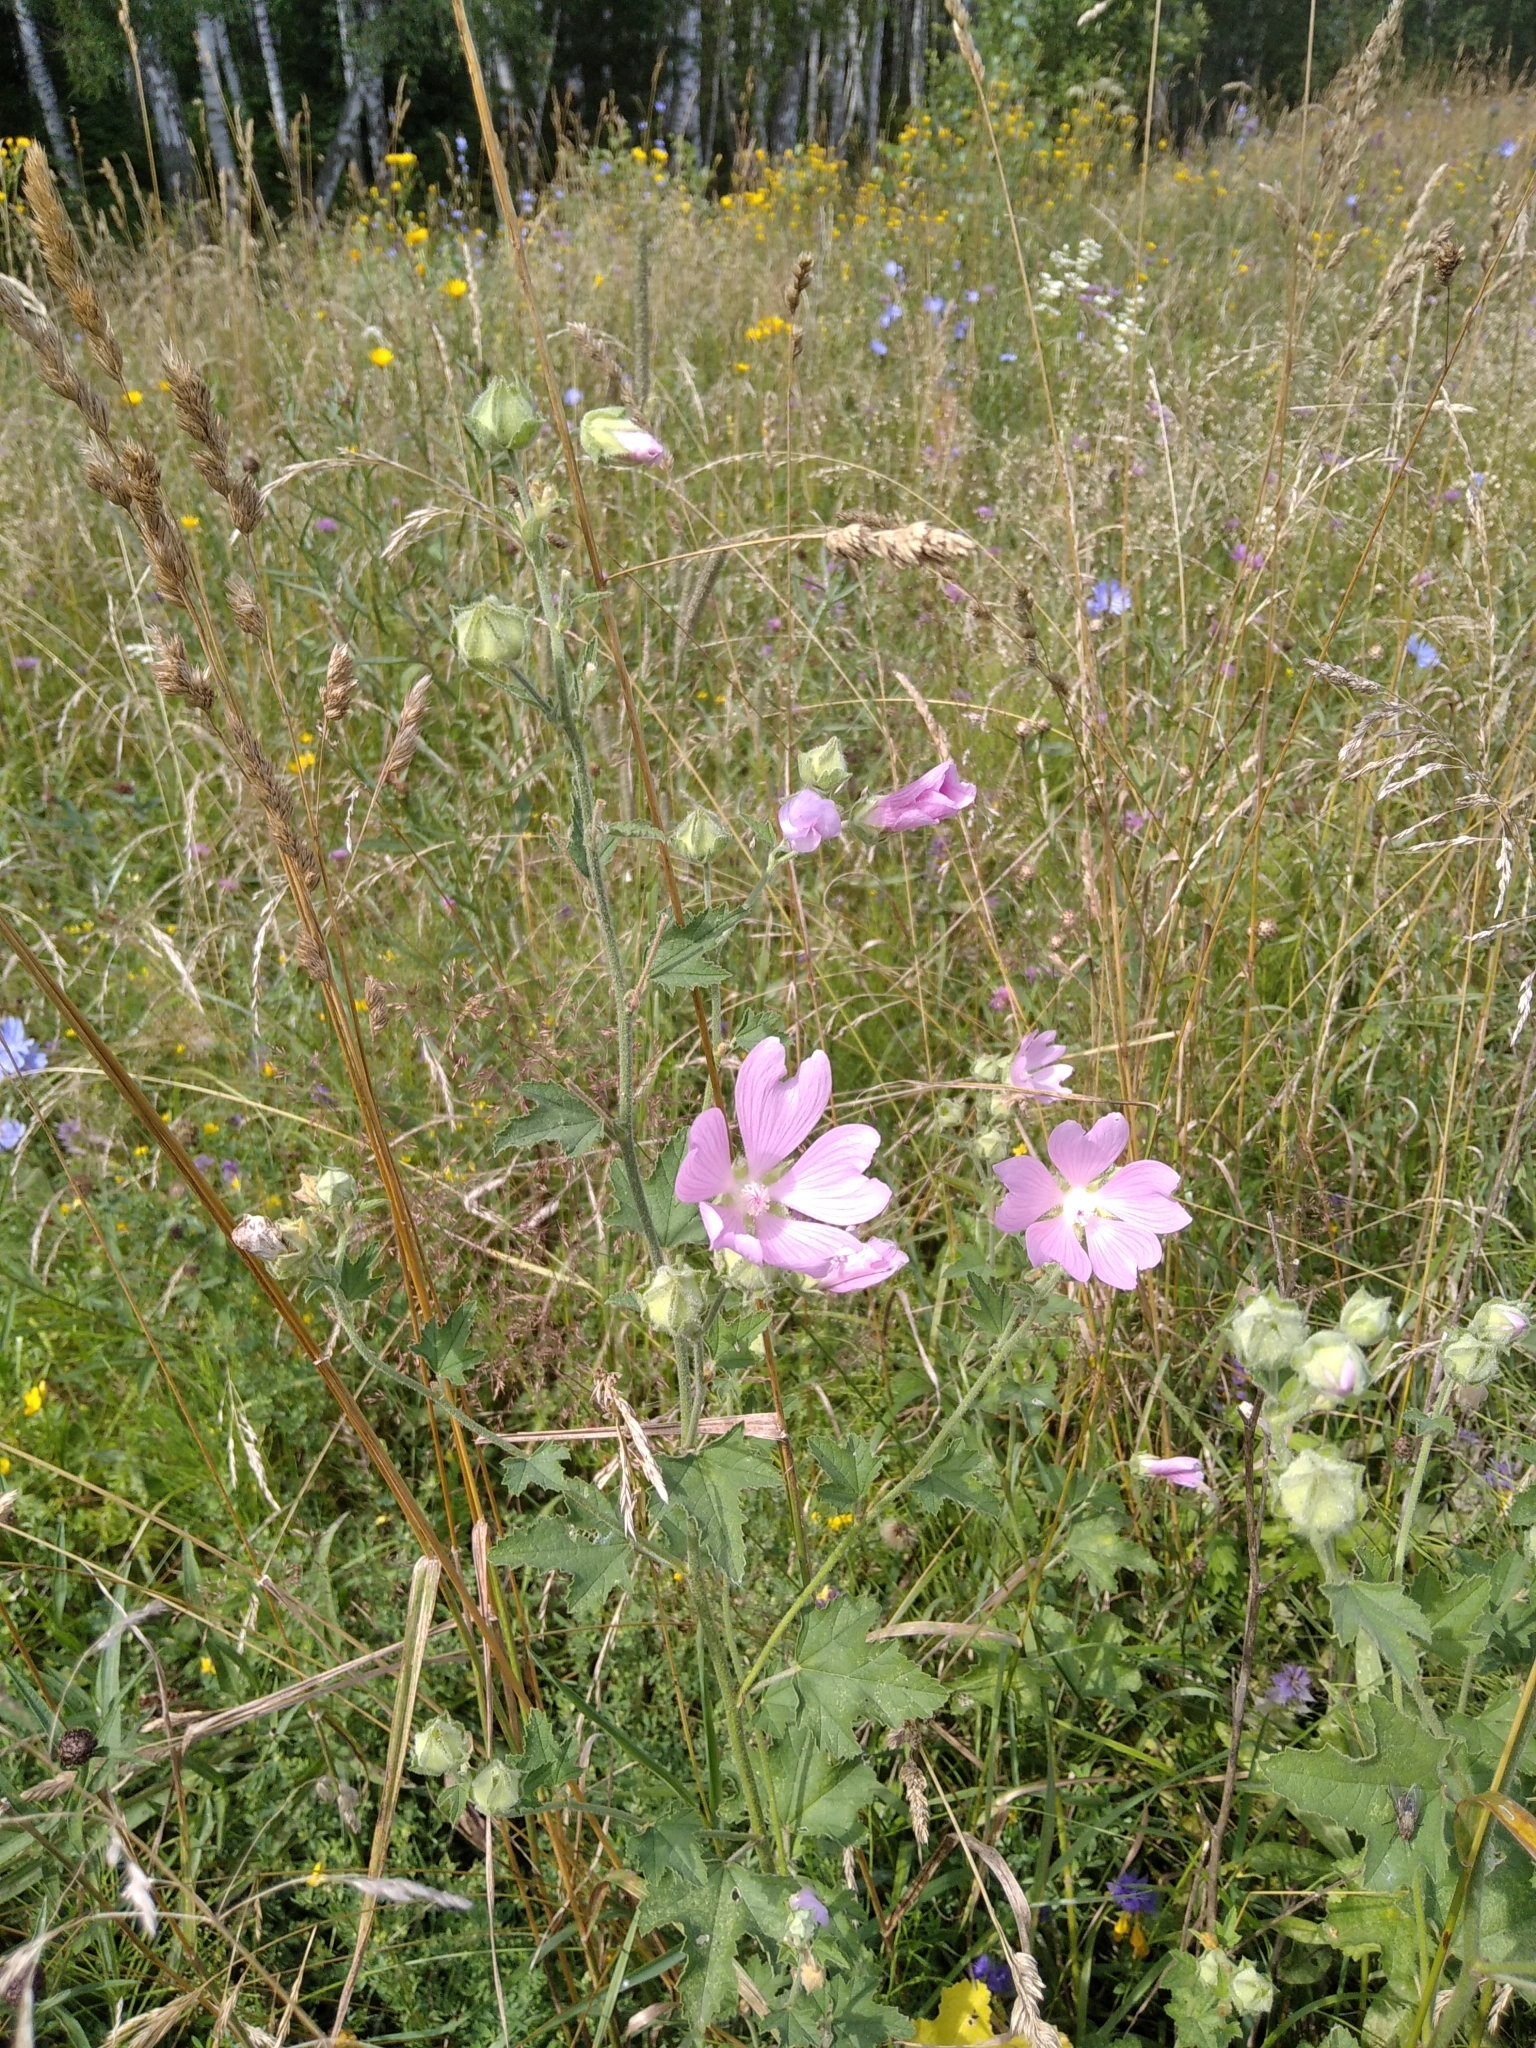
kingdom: Plantae
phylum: Tracheophyta
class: Magnoliopsida
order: Malvales
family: Malvaceae
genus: Malva
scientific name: Malva thuringiaca
